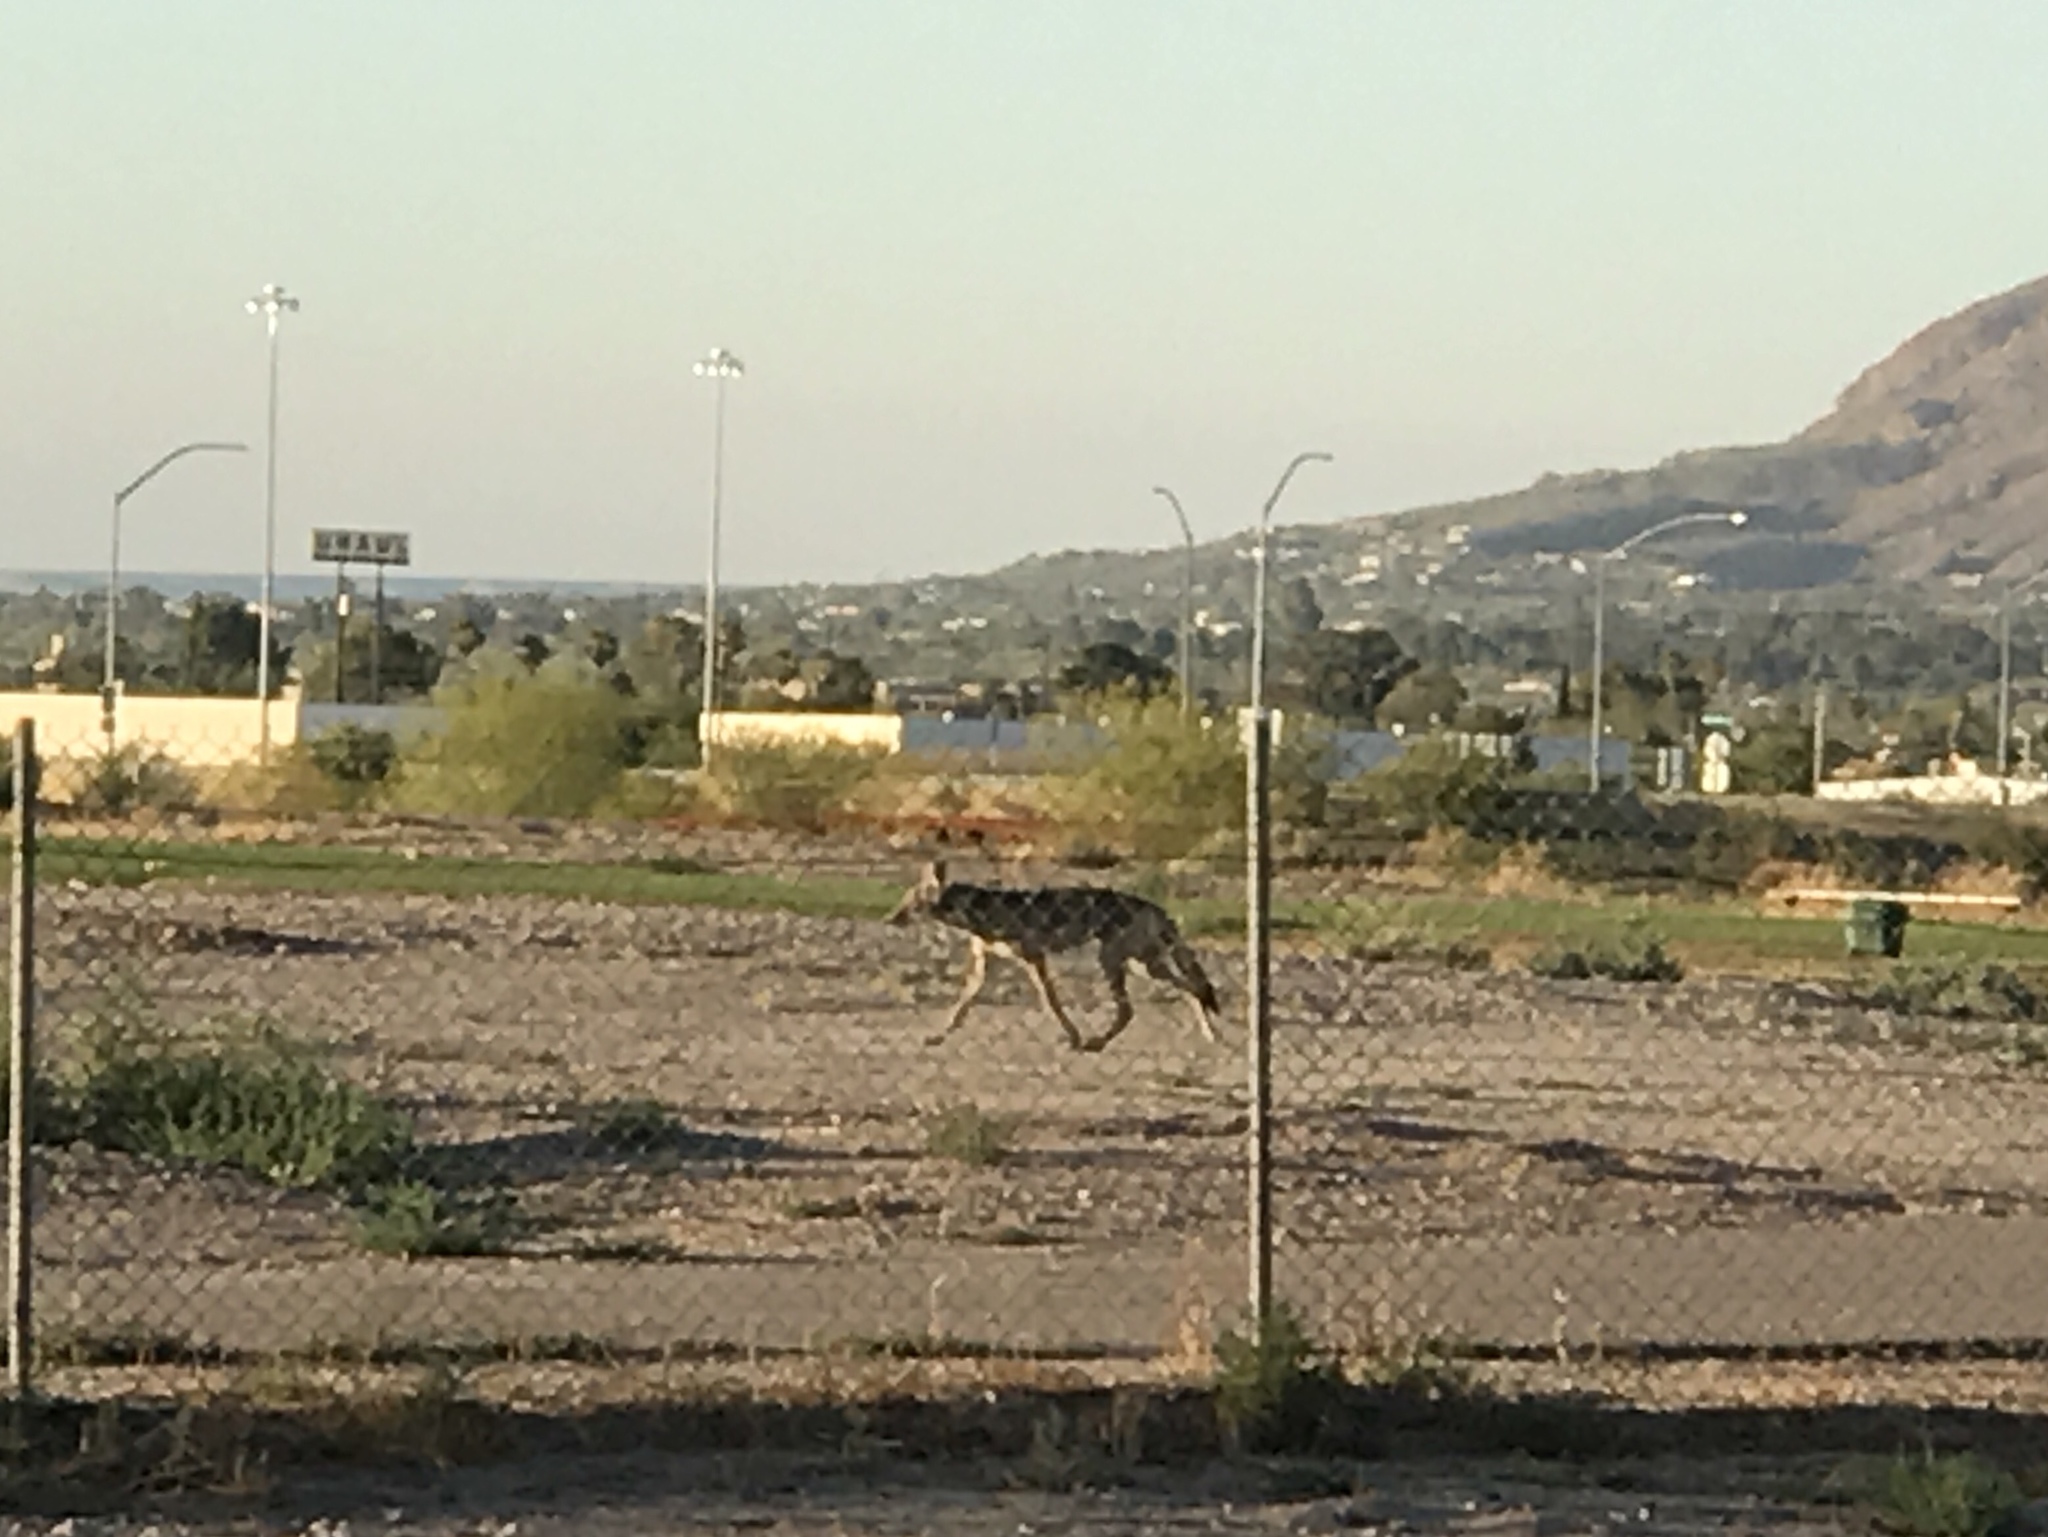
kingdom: Animalia
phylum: Chordata
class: Mammalia
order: Carnivora
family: Canidae
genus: Canis
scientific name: Canis latrans
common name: Coyote
